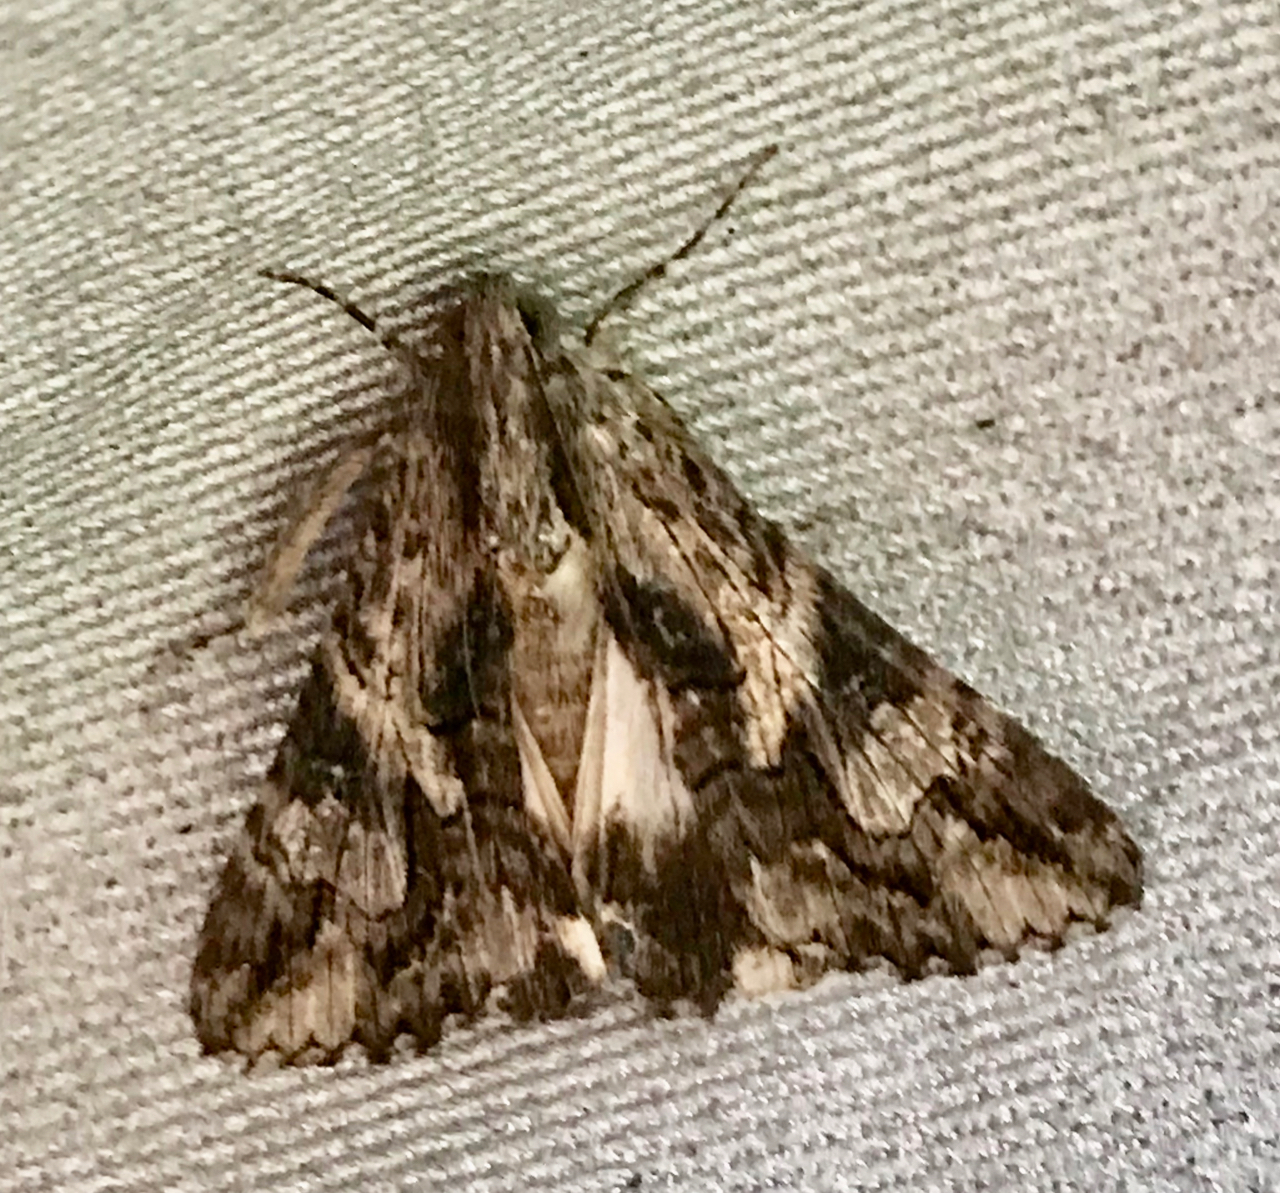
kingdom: Animalia
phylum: Arthropoda
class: Insecta
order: Lepidoptera
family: Erebidae
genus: Melipotis
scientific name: Melipotis jucunda
